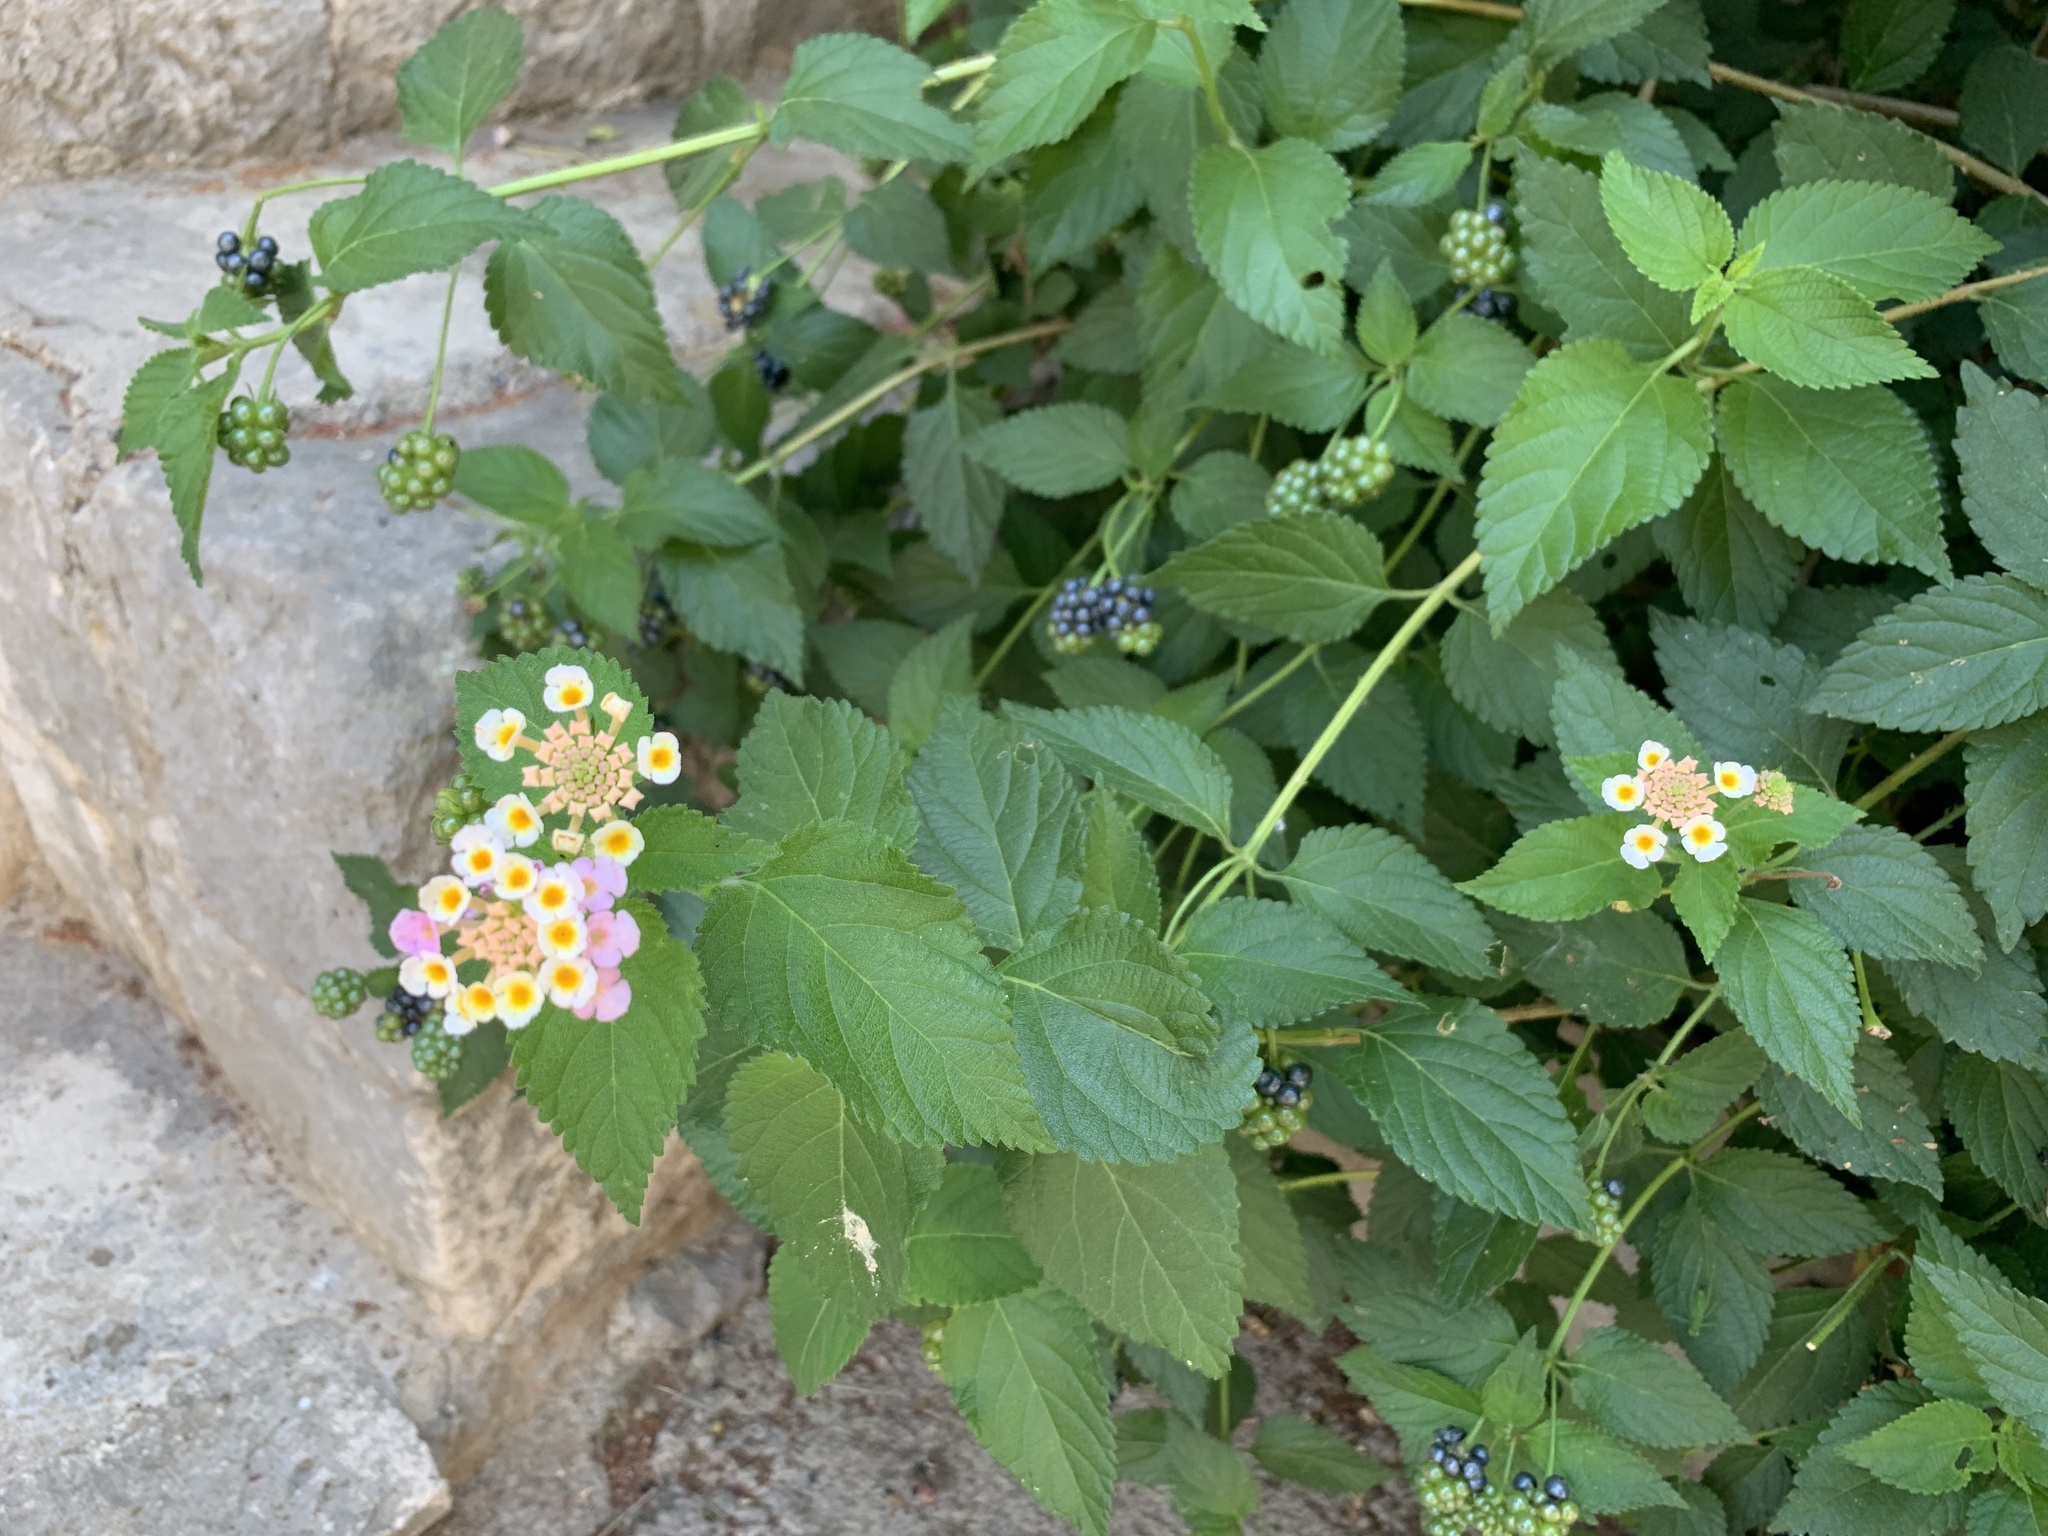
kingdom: Plantae
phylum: Tracheophyta
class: Magnoliopsida
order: Lamiales
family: Verbenaceae
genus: Lantana
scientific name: Lantana camara
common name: Lantana
